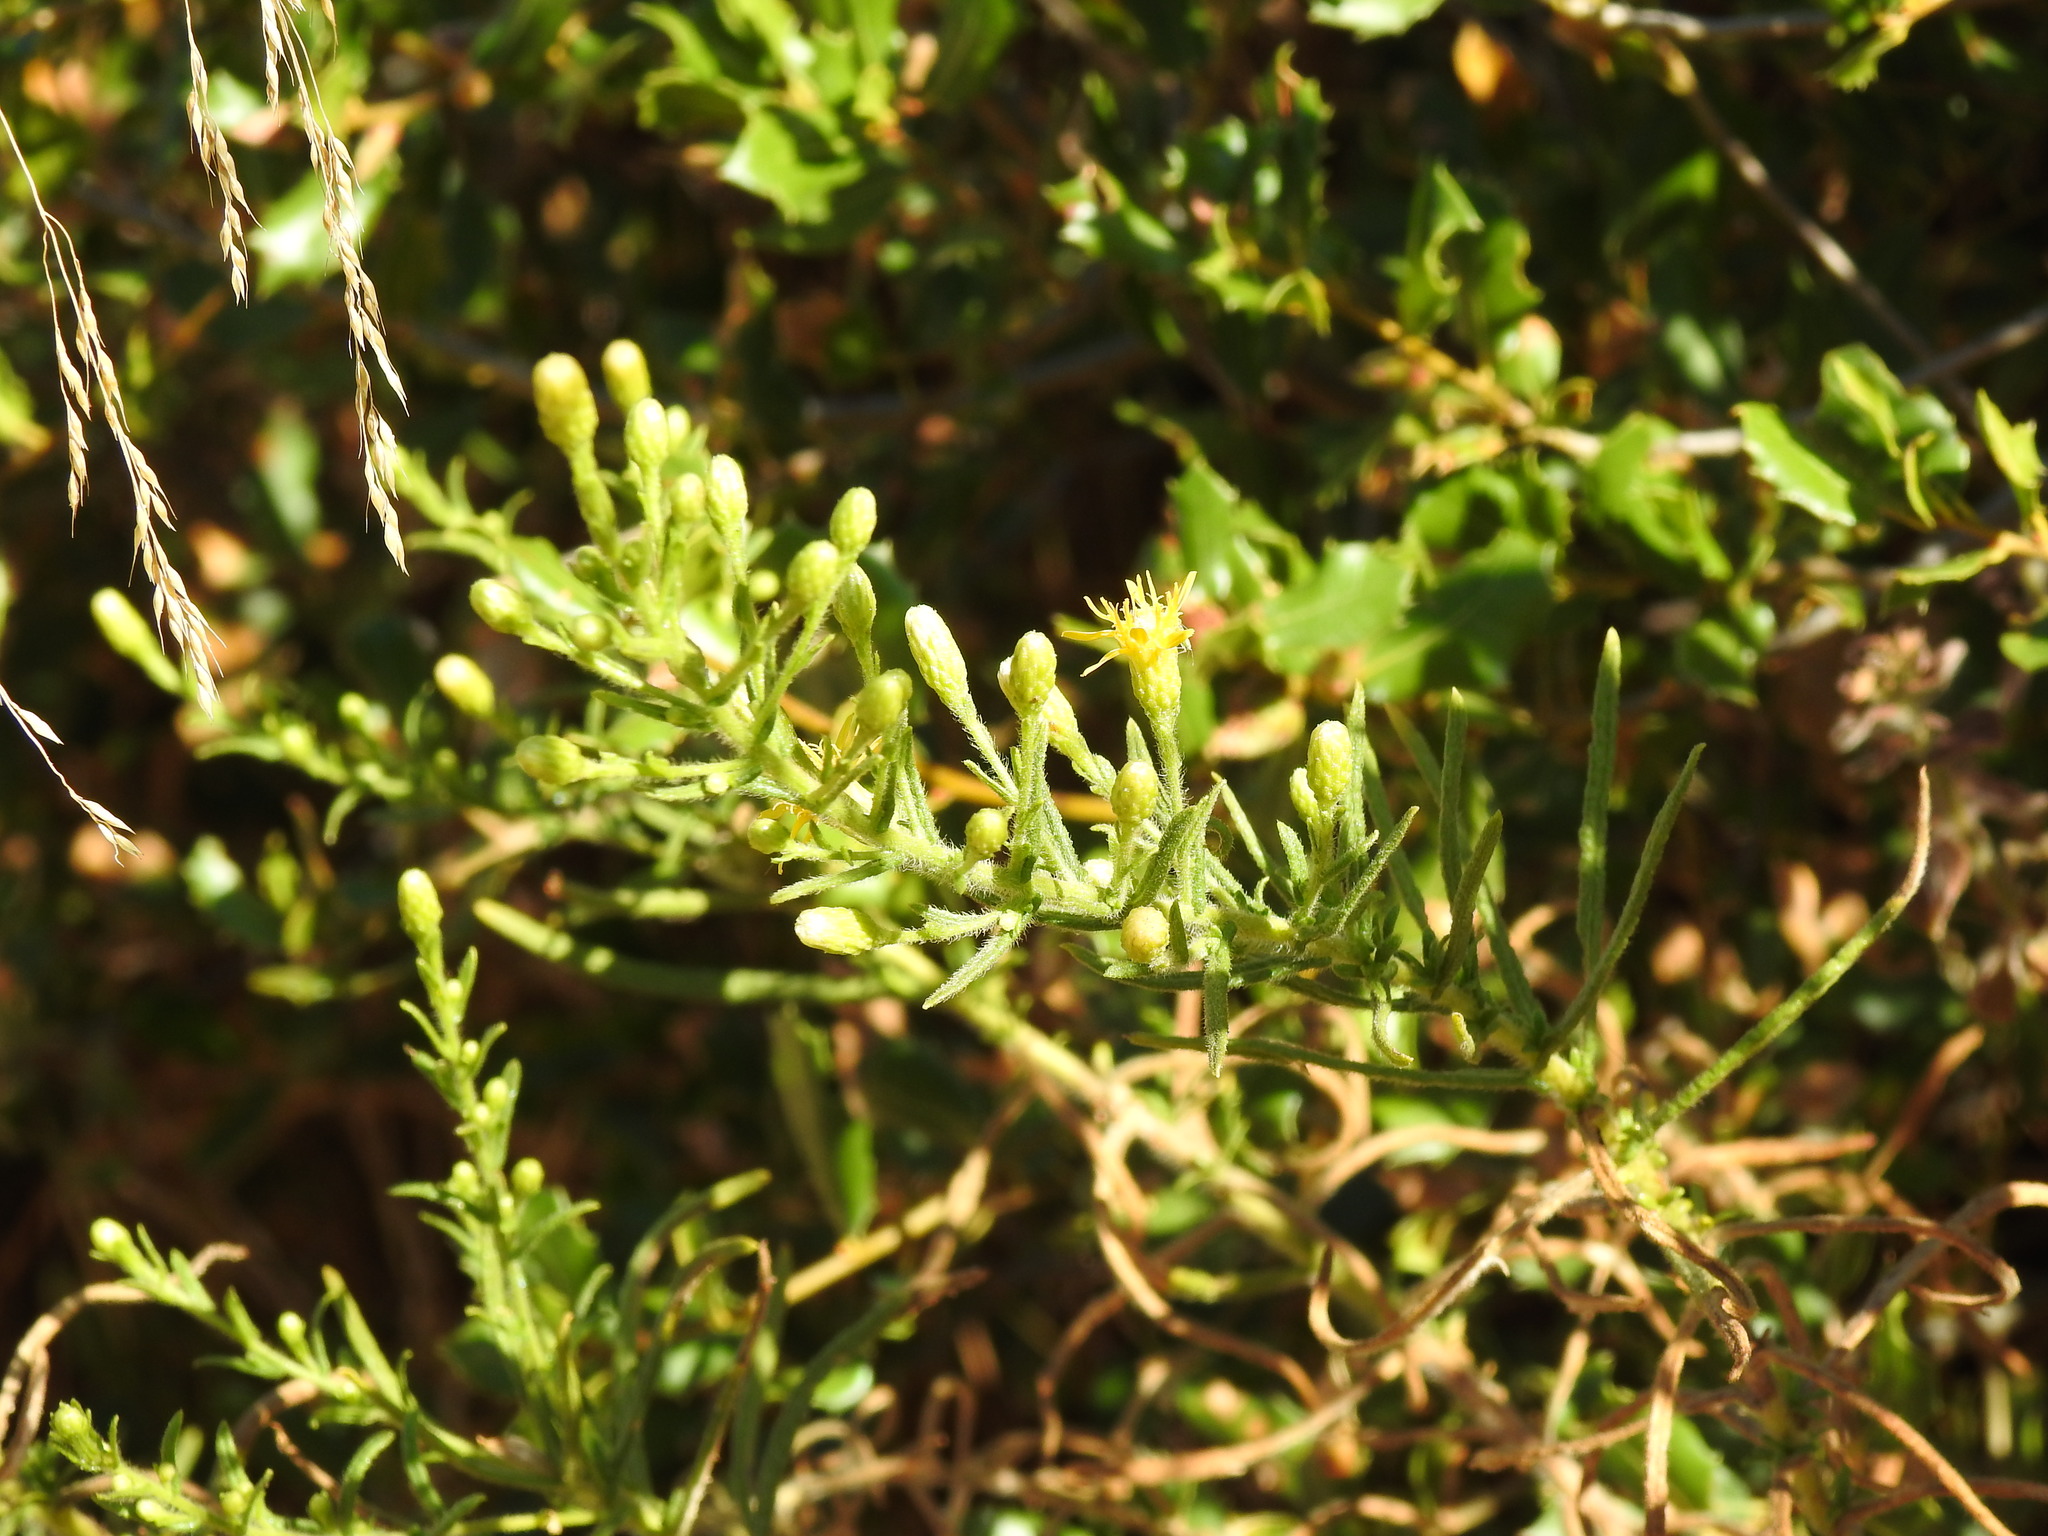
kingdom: Plantae
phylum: Tracheophyta
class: Magnoliopsida
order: Asterales
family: Asteraceae
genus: Dittrichia
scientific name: Dittrichia viscosa
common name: Woody fleabane
